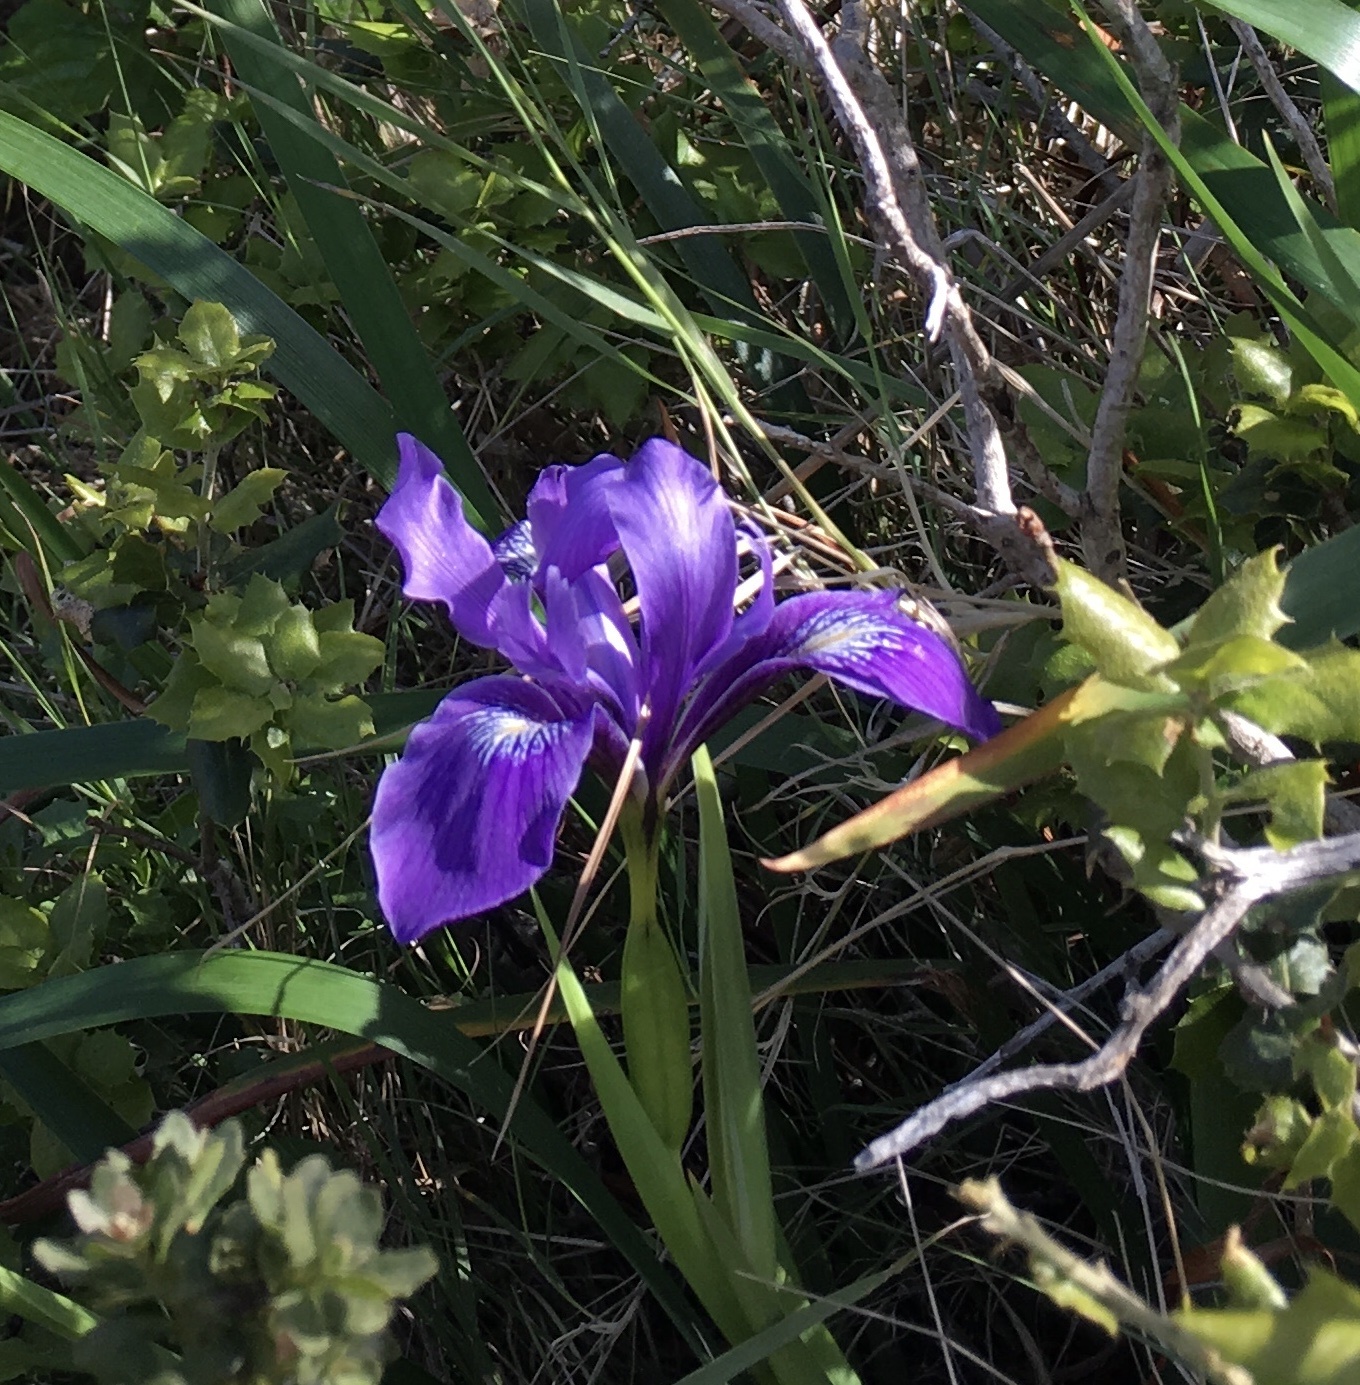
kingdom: Plantae
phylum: Tracheophyta
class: Liliopsida
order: Asparagales
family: Iridaceae
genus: Iris
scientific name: Iris douglasiana
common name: Marin iris
